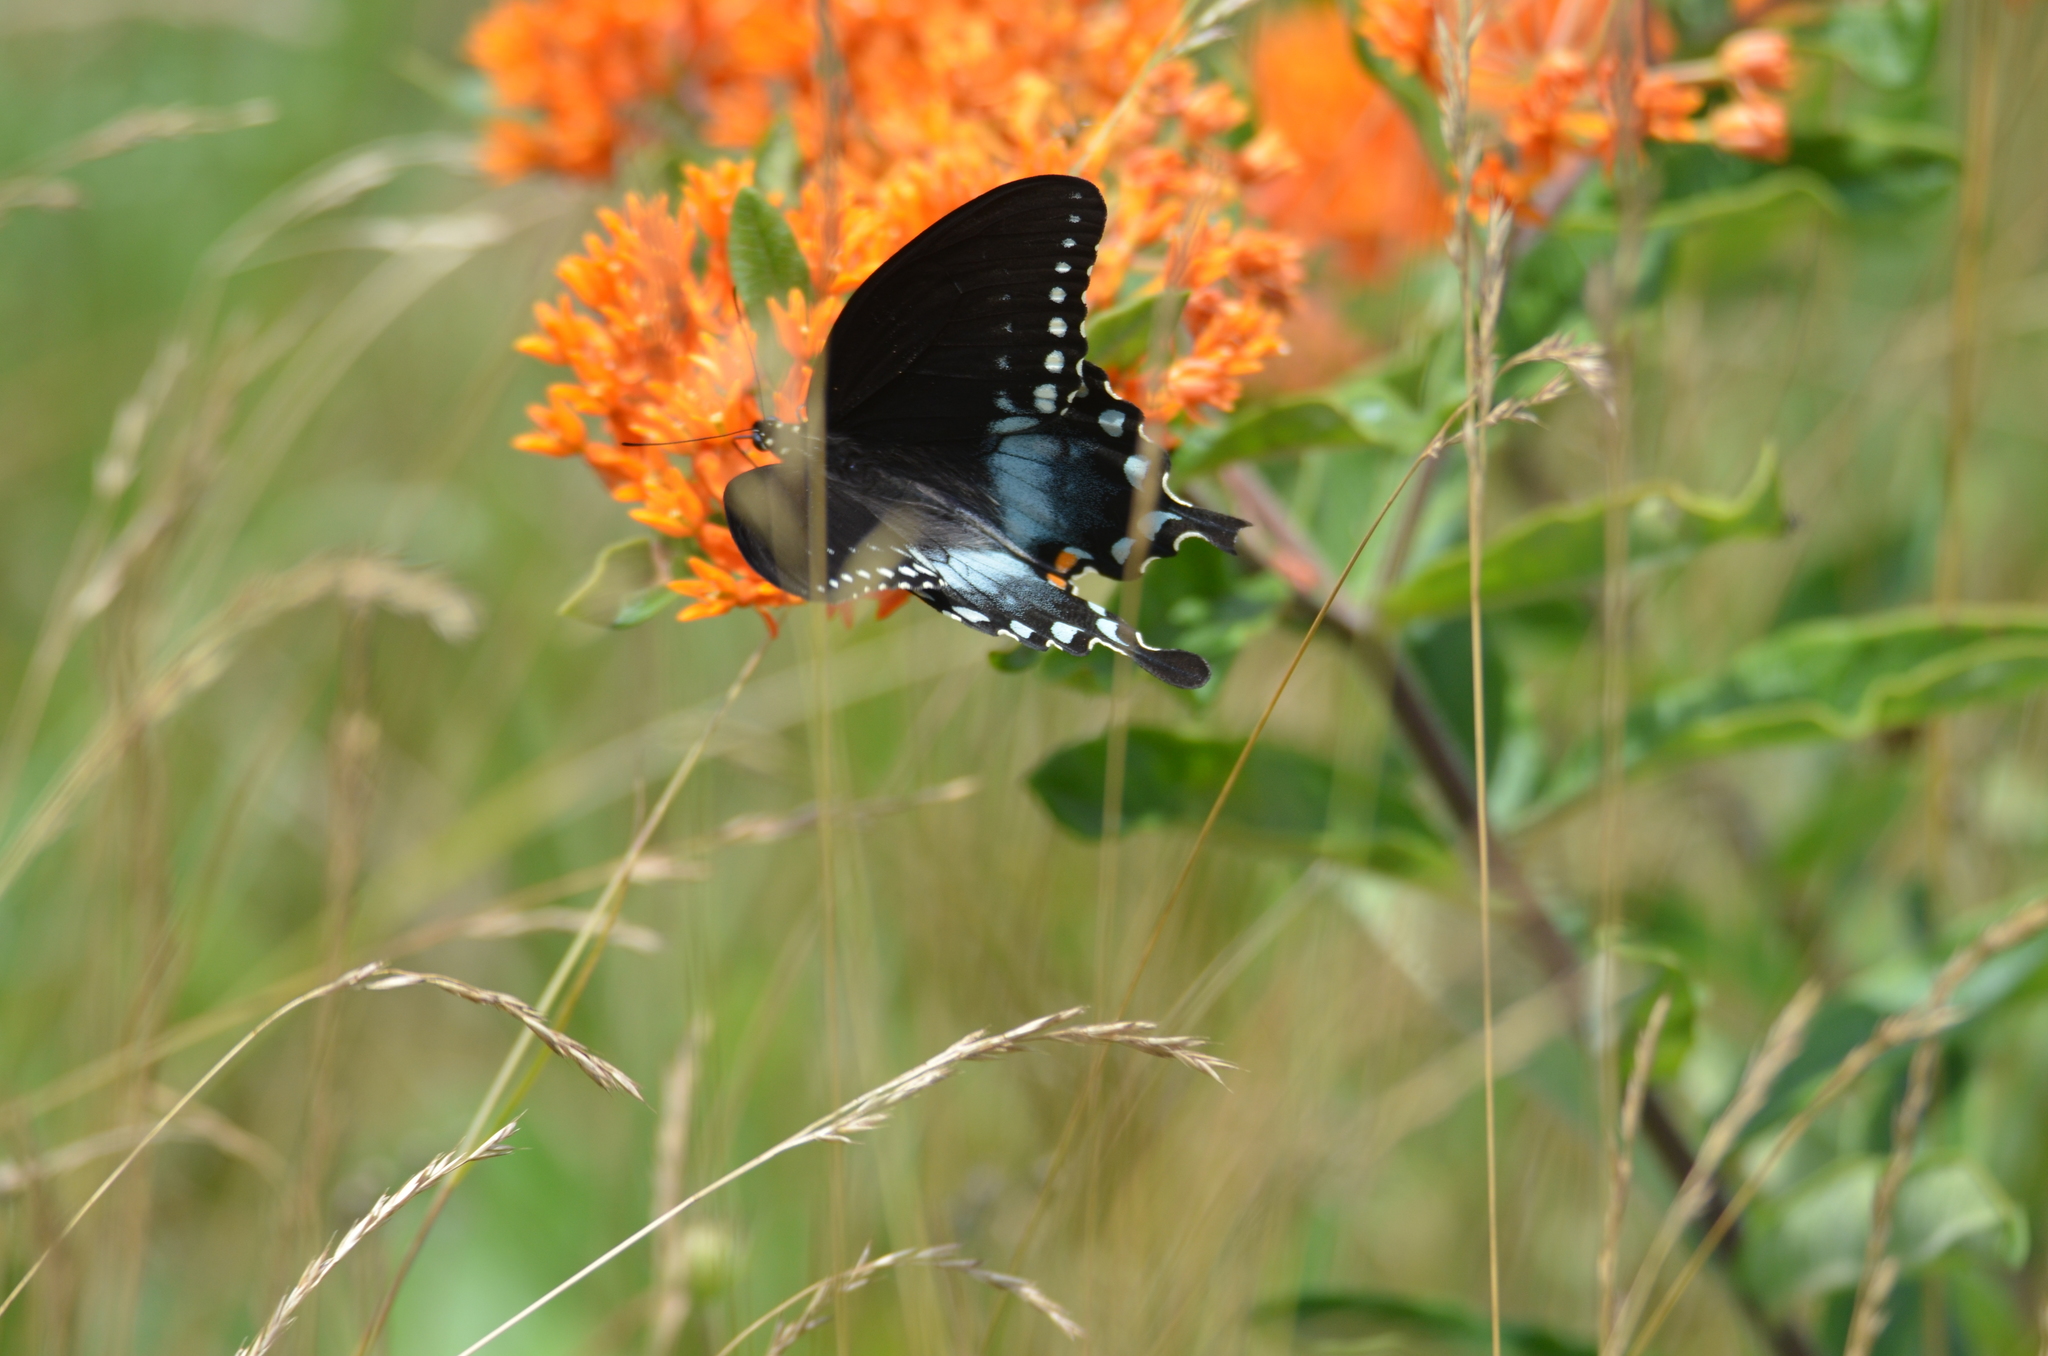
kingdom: Animalia
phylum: Arthropoda
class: Insecta
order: Lepidoptera
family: Papilionidae
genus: Papilio
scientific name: Papilio troilus
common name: Spicebush swallowtail
